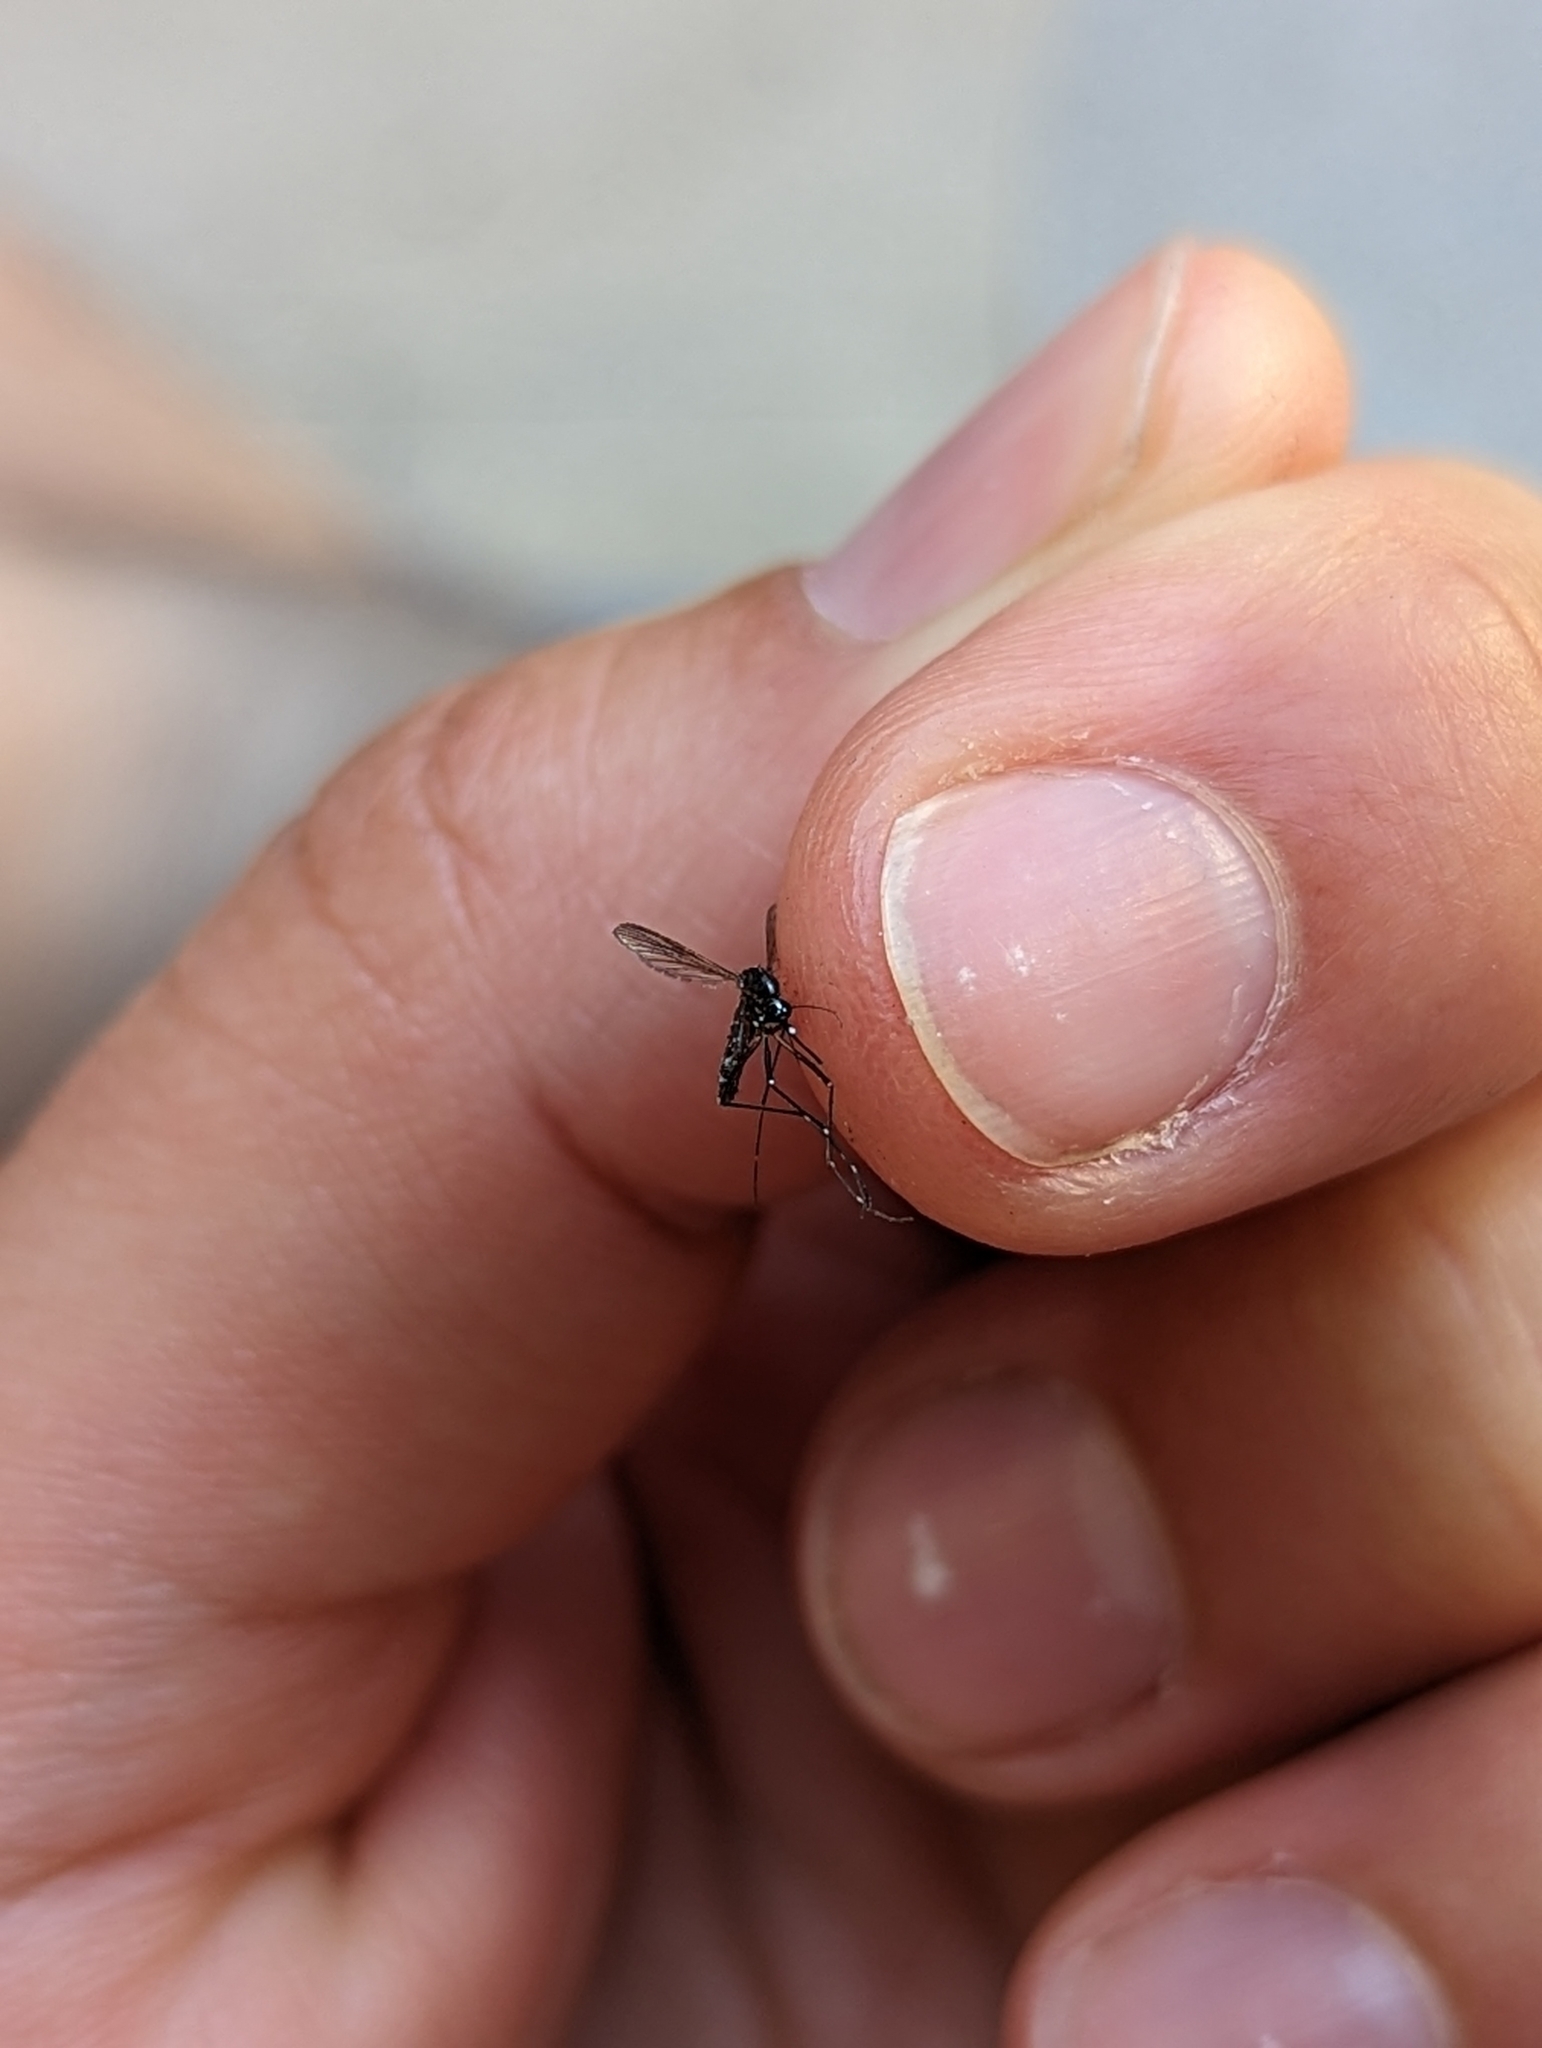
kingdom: Animalia
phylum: Arthropoda
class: Insecta
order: Diptera
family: Culicidae
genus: Aedes
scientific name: Aedes albopictus
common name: Tiger mosquito
